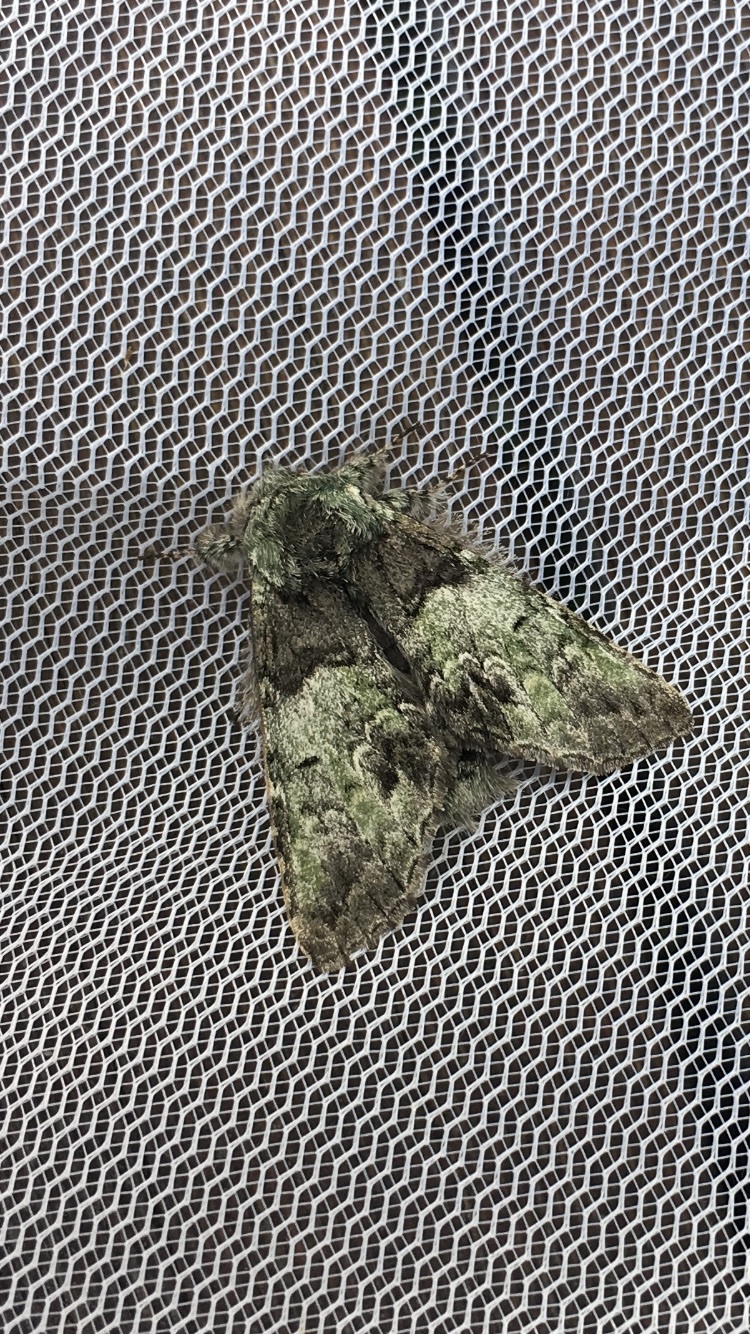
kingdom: Animalia
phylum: Arthropoda
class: Insecta
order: Lepidoptera
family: Notodontidae
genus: Macrurocampa
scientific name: Macrurocampa marthesia
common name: Mottled prominent
